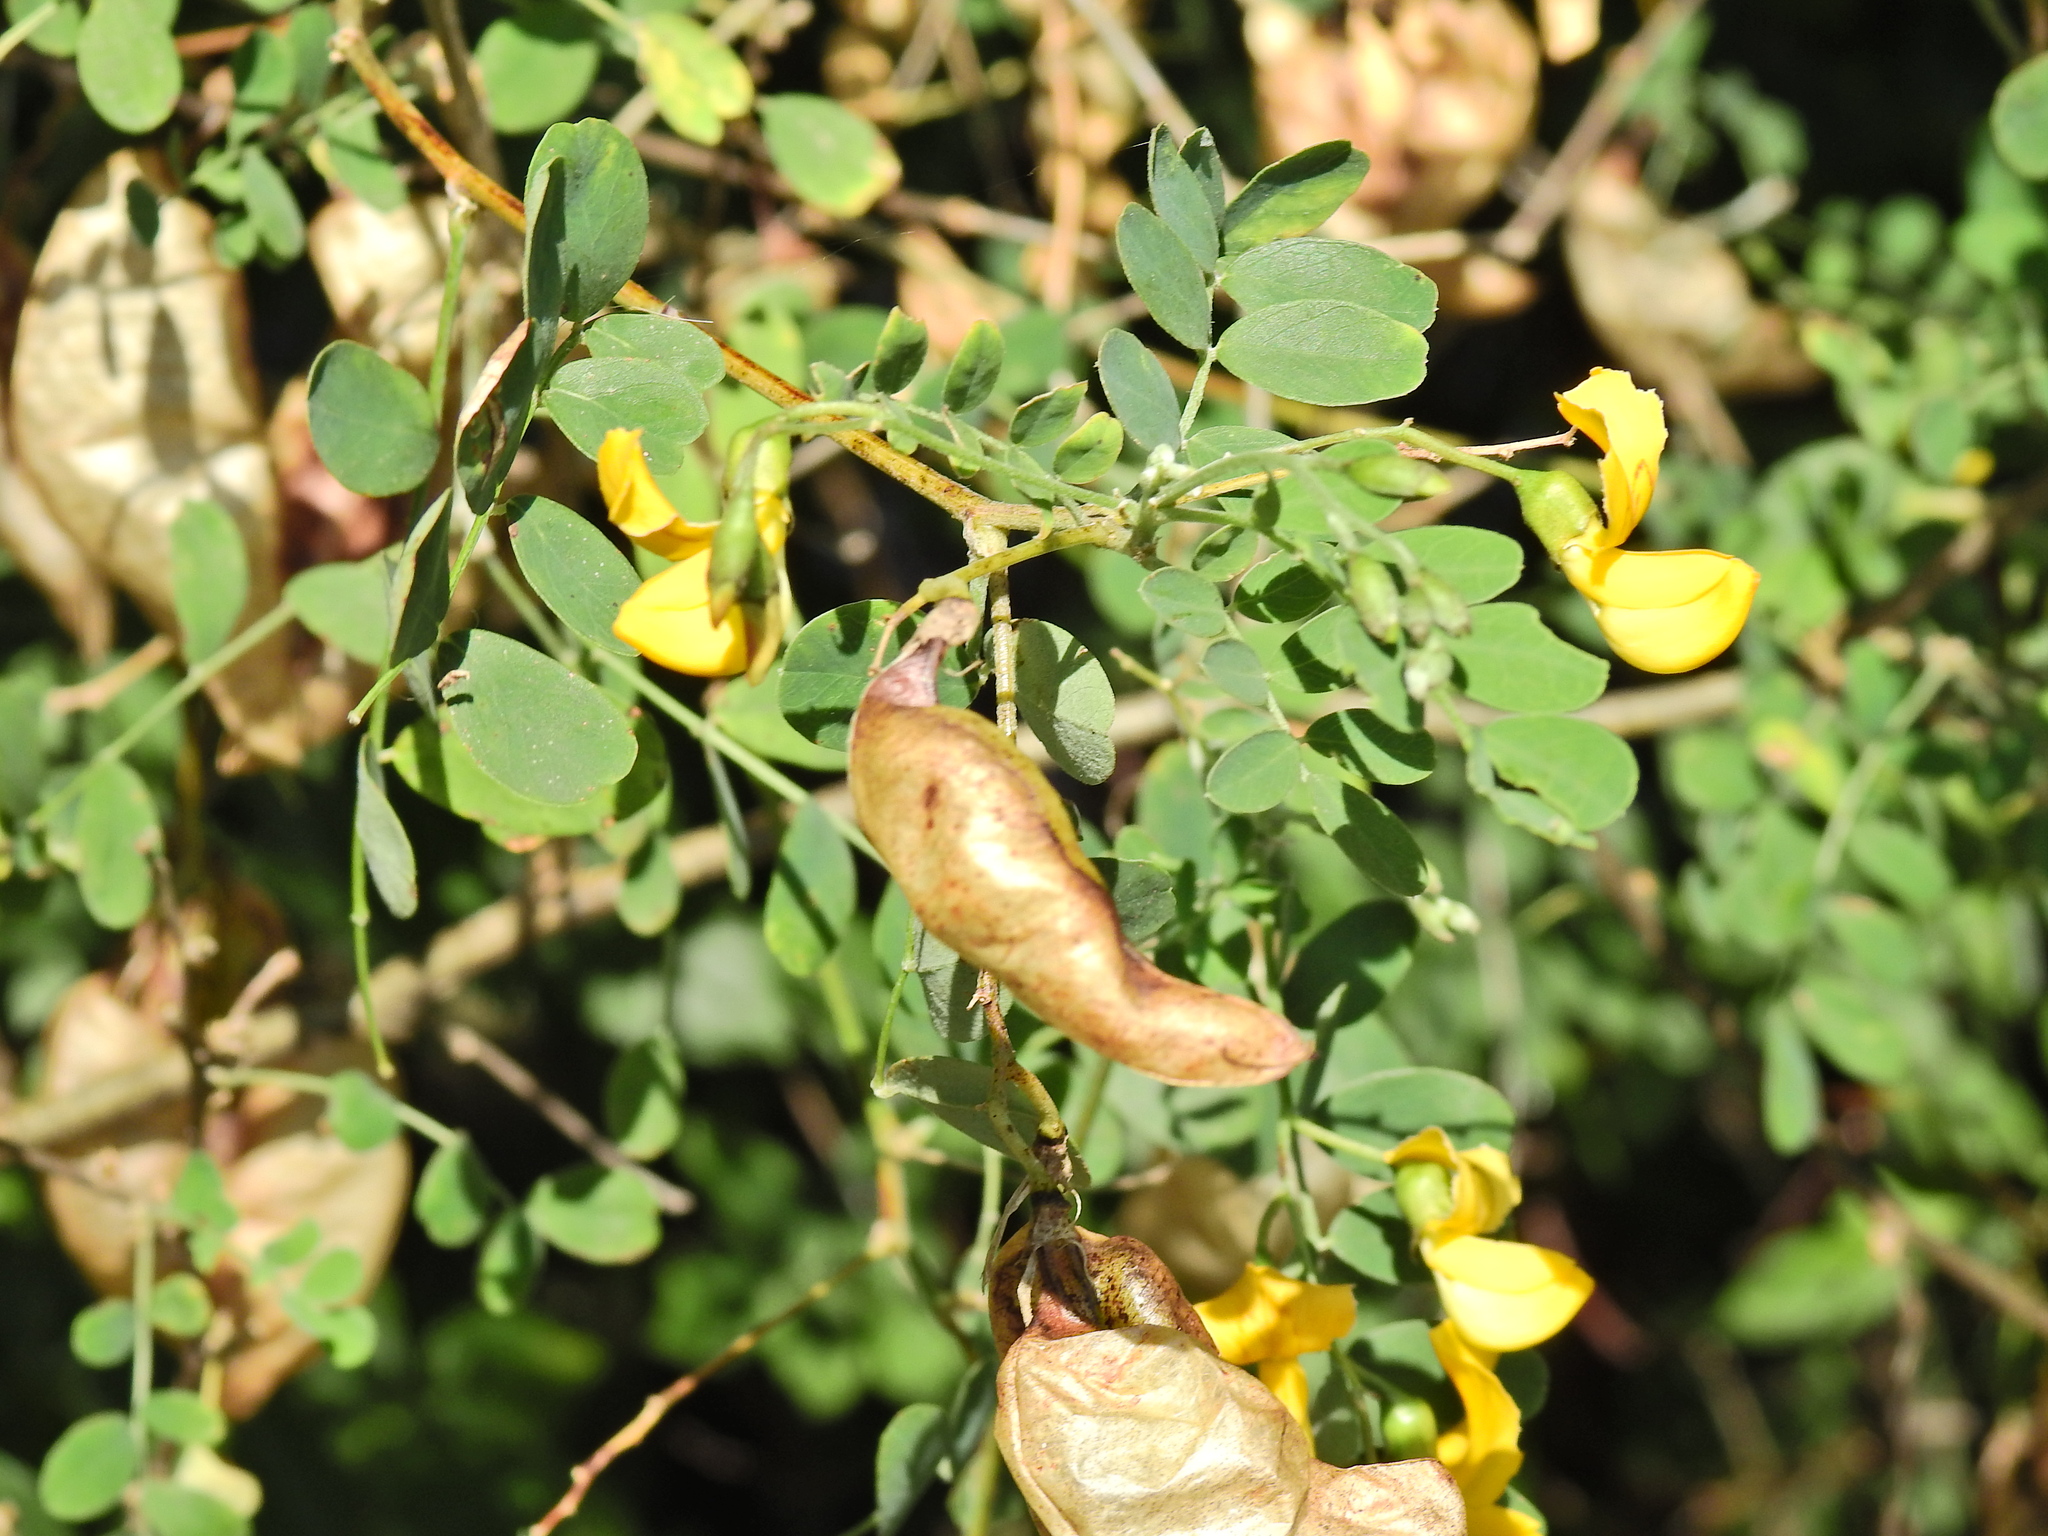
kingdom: Plantae
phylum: Tracheophyta
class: Magnoliopsida
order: Fabales
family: Fabaceae
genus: Colutea
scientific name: Colutea arborescens
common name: Bladder-senna
